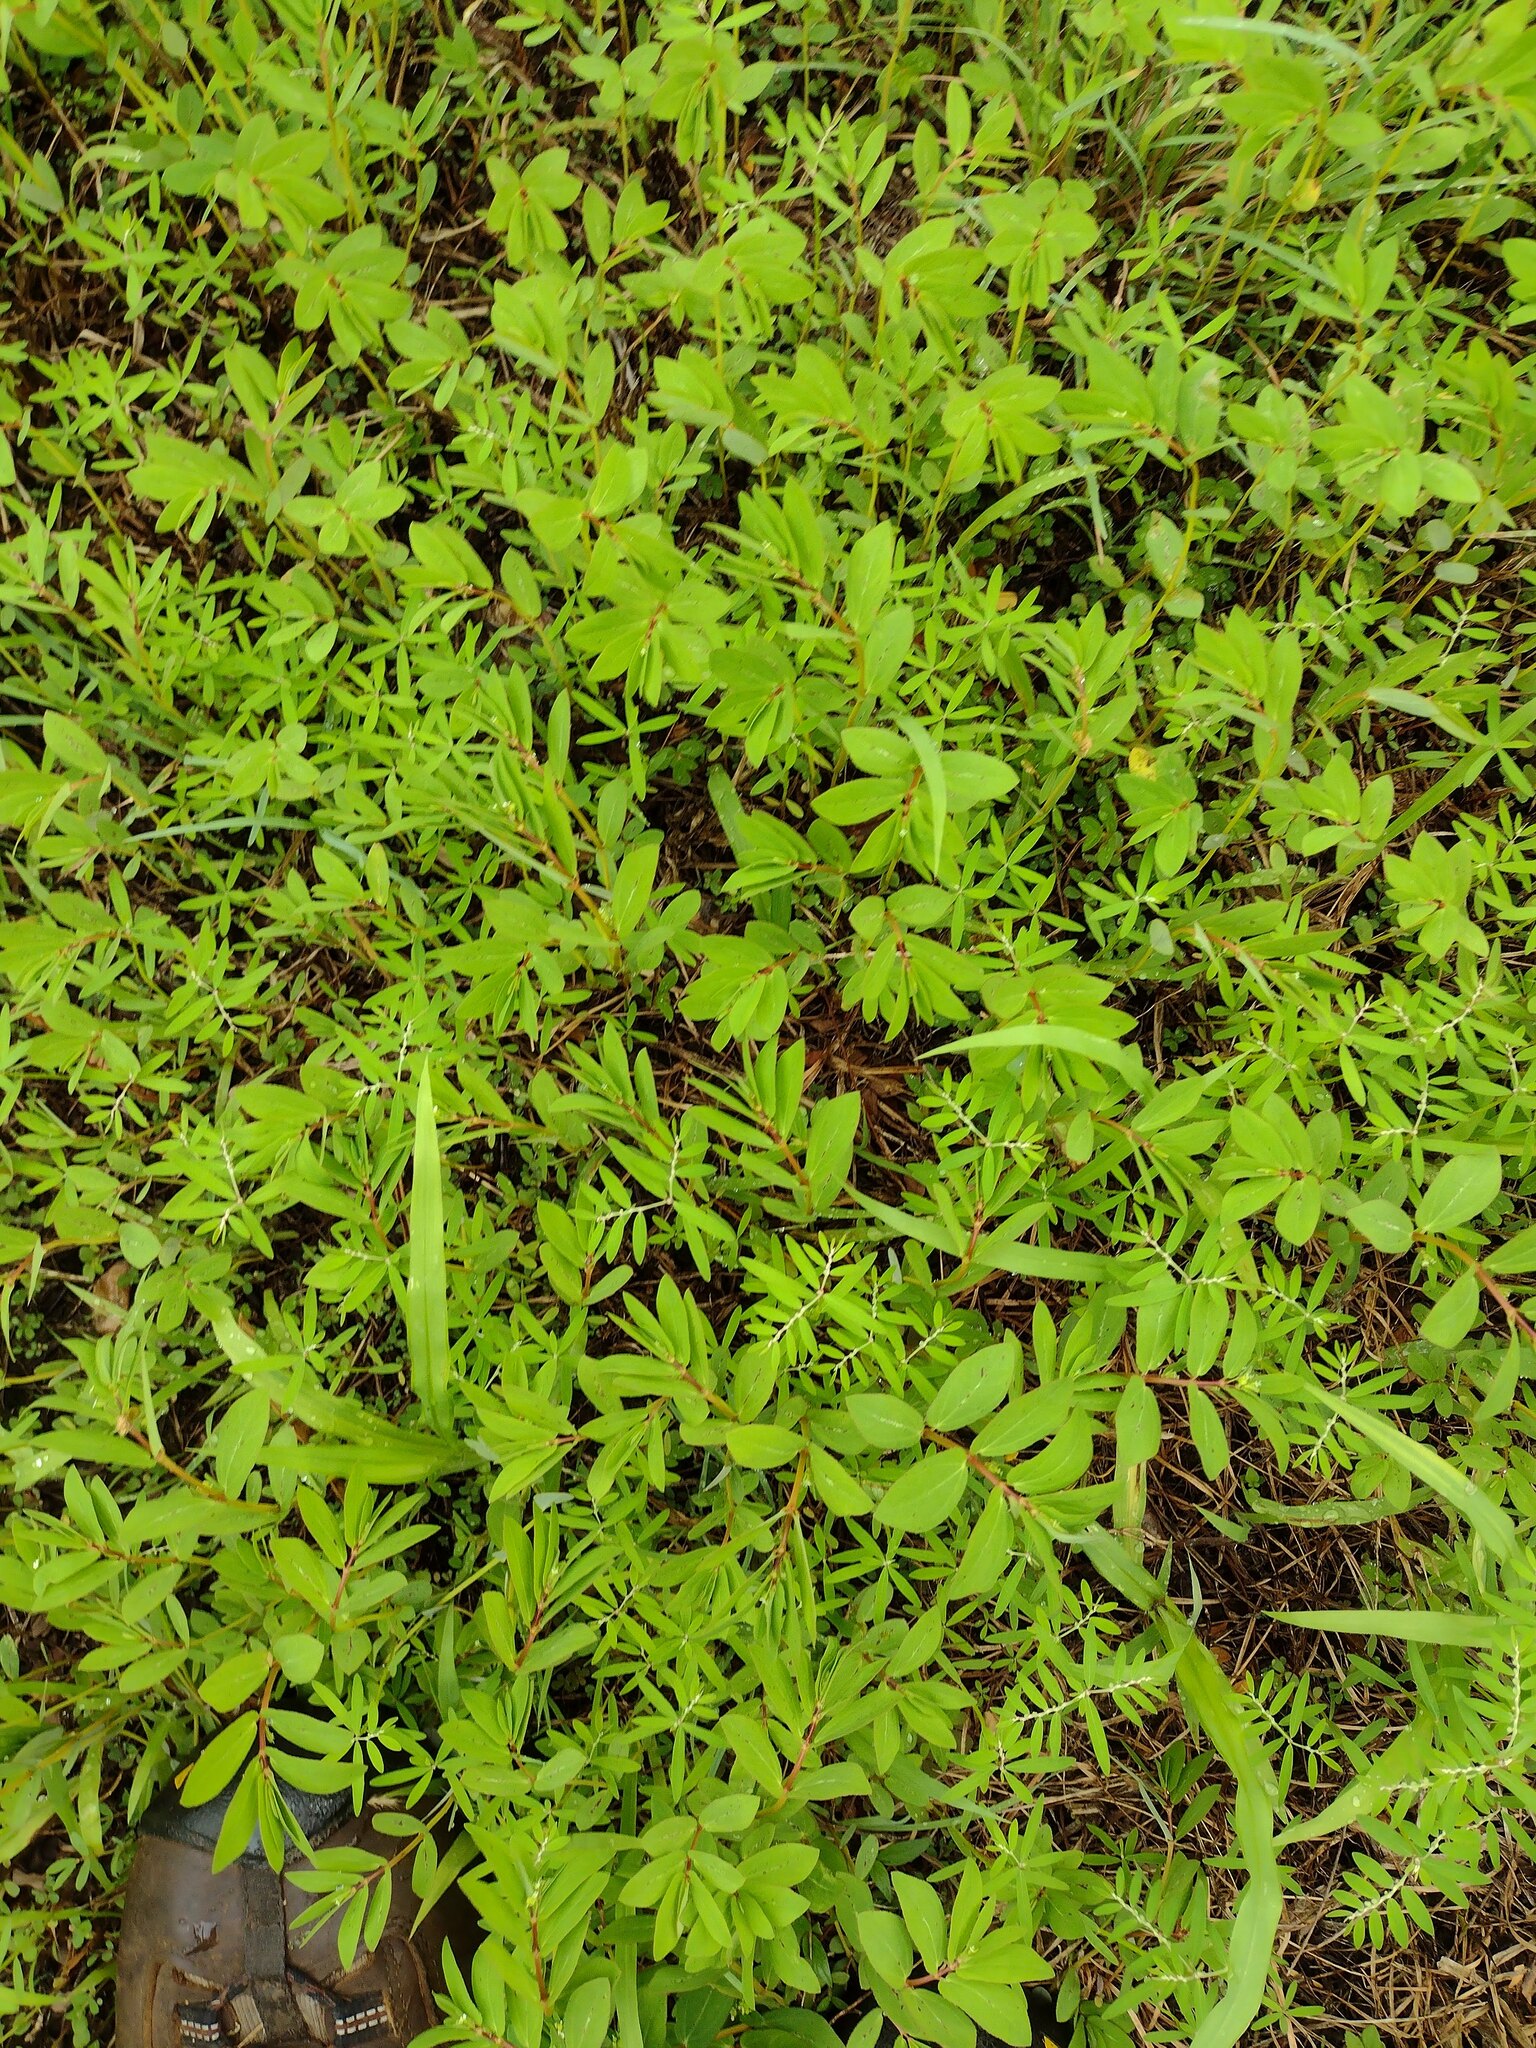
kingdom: Plantae
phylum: Tracheophyta
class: Magnoliopsida
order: Malpighiales
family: Euphorbiaceae
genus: Euphorbia
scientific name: Euphorbia hyssopifolia
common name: Hyssopleaf sandmat
